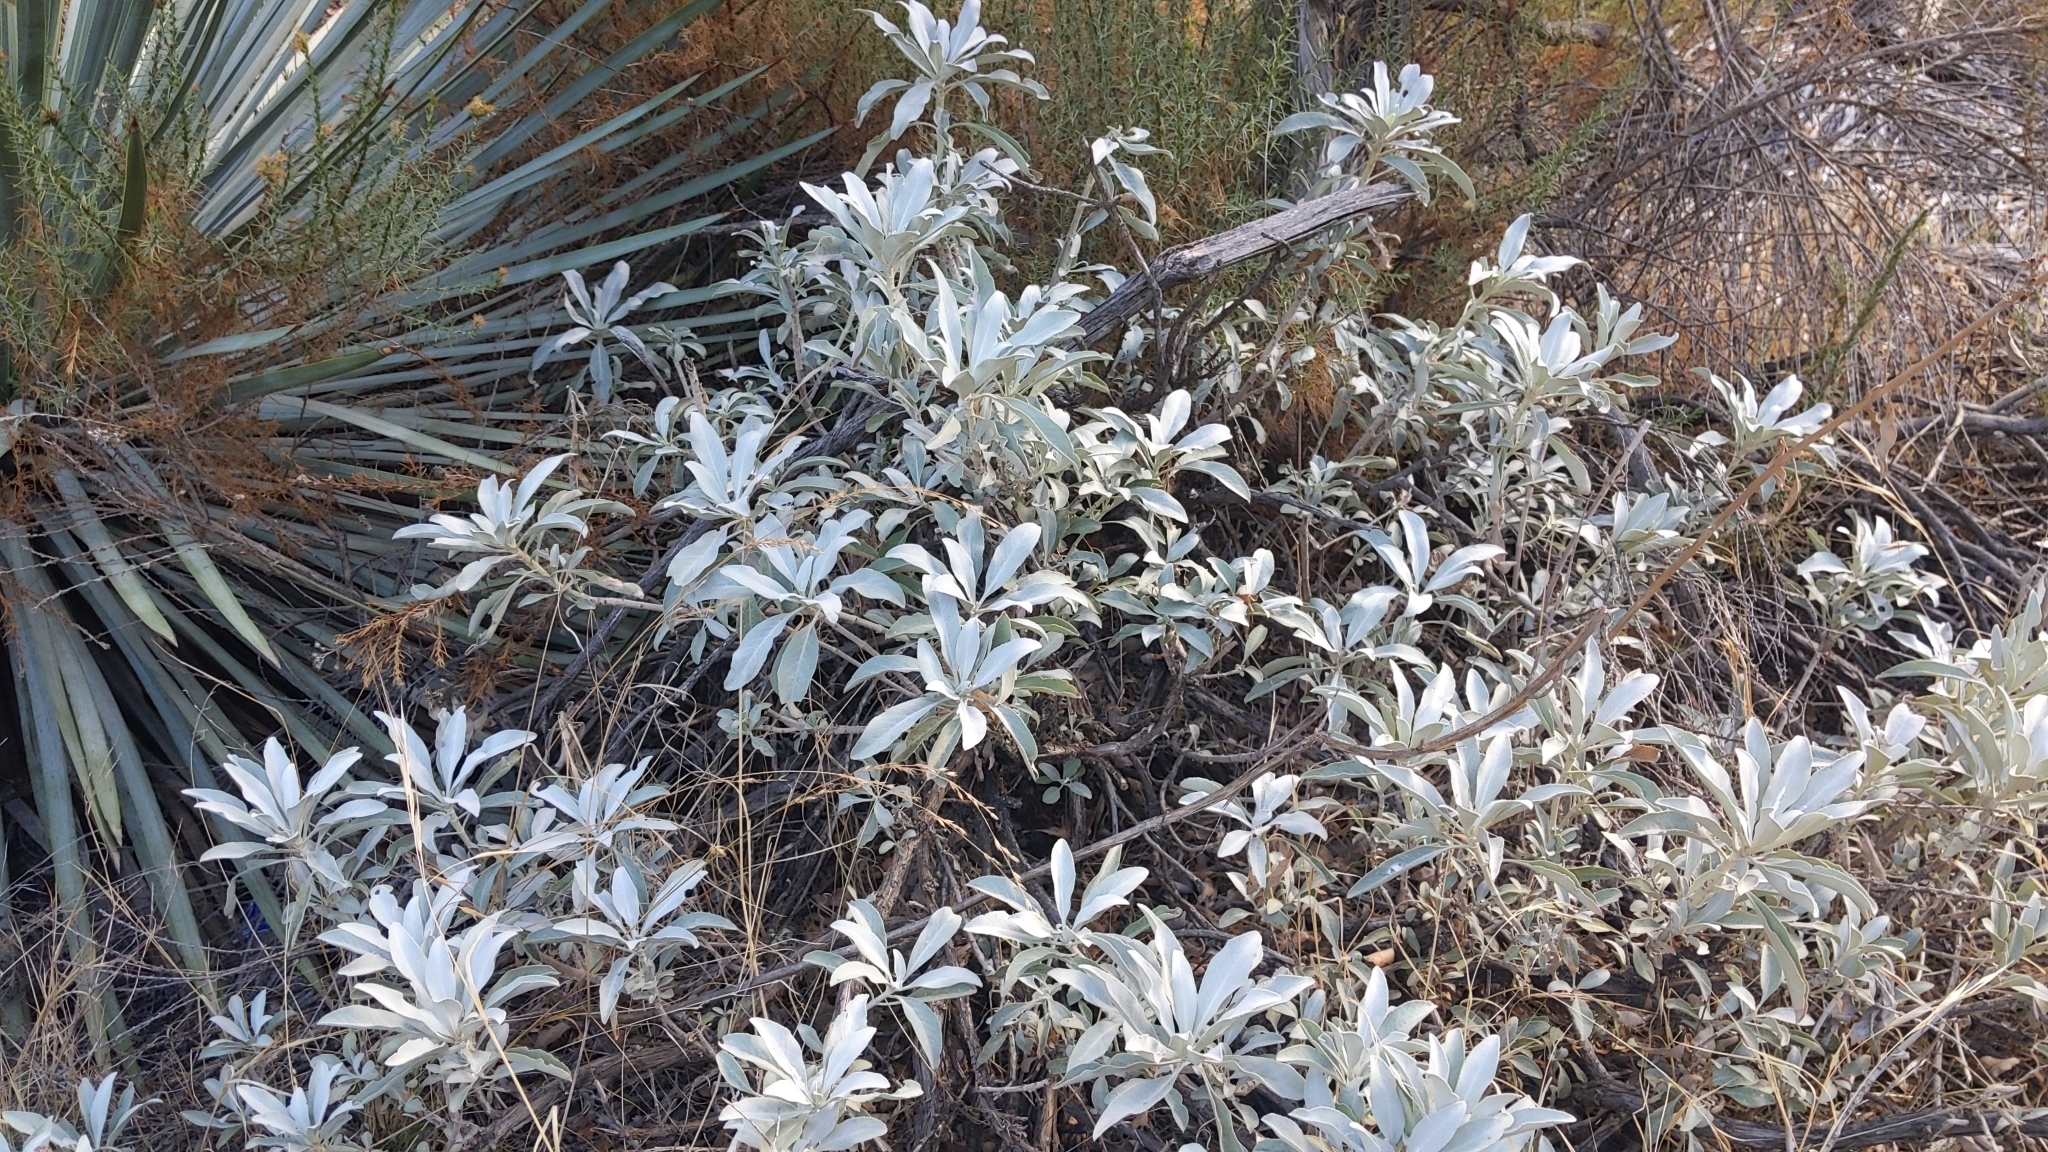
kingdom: Plantae
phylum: Tracheophyta
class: Magnoliopsida
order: Lamiales
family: Lamiaceae
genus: Salvia
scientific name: Salvia apiana
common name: White sage
